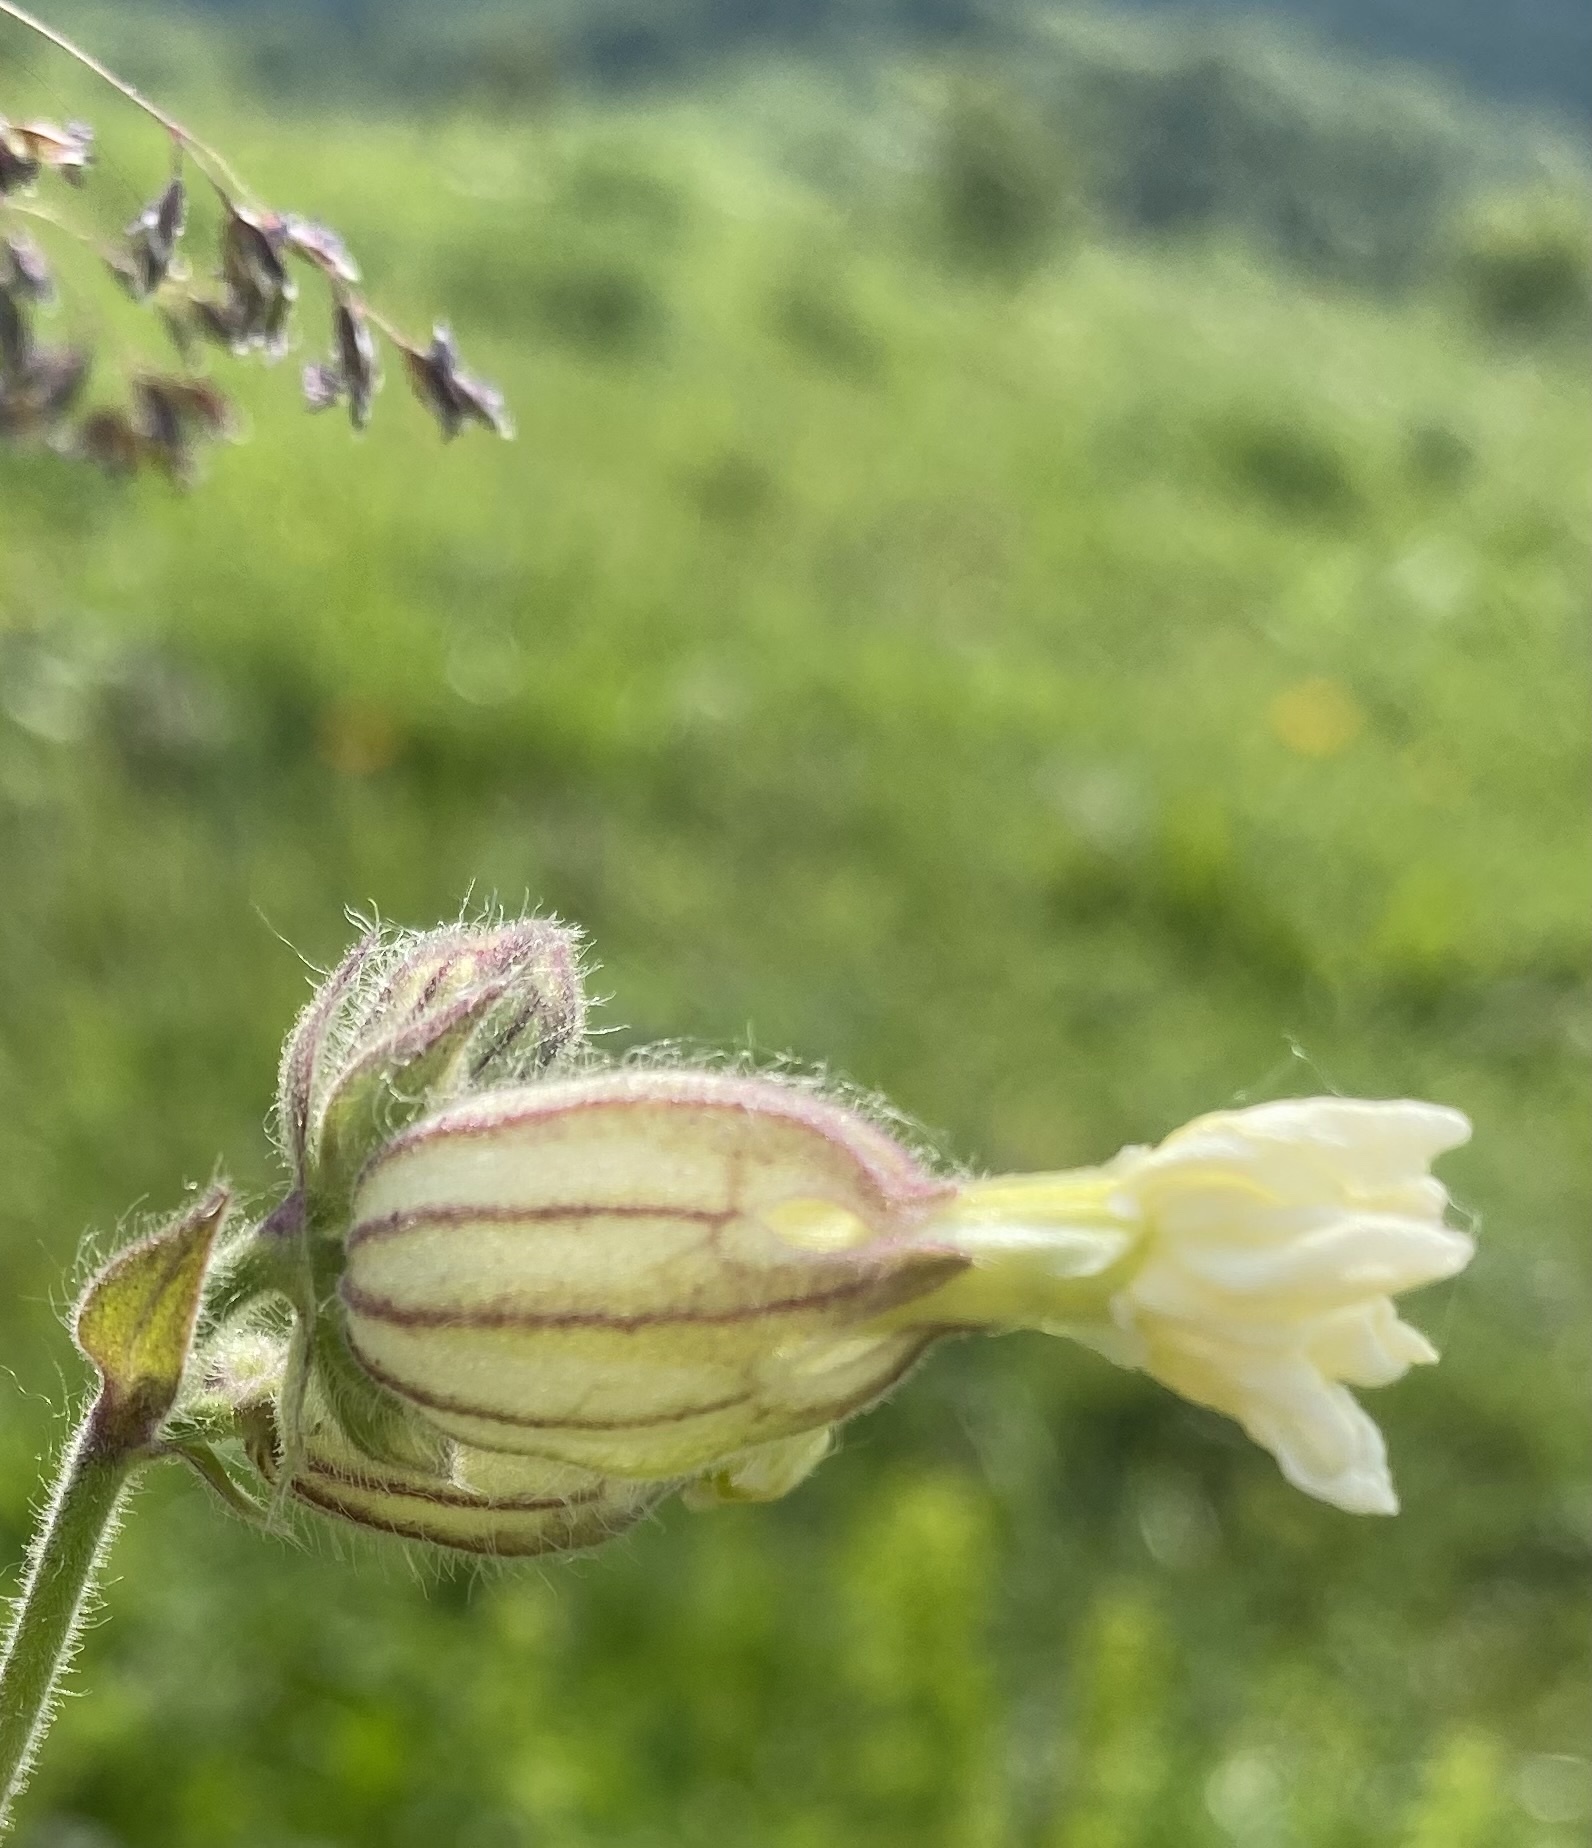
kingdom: Plantae
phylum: Tracheophyta
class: Magnoliopsida
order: Caryophyllales
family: Caryophyllaceae
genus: Silene
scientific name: Silene latifolia
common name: White campion
